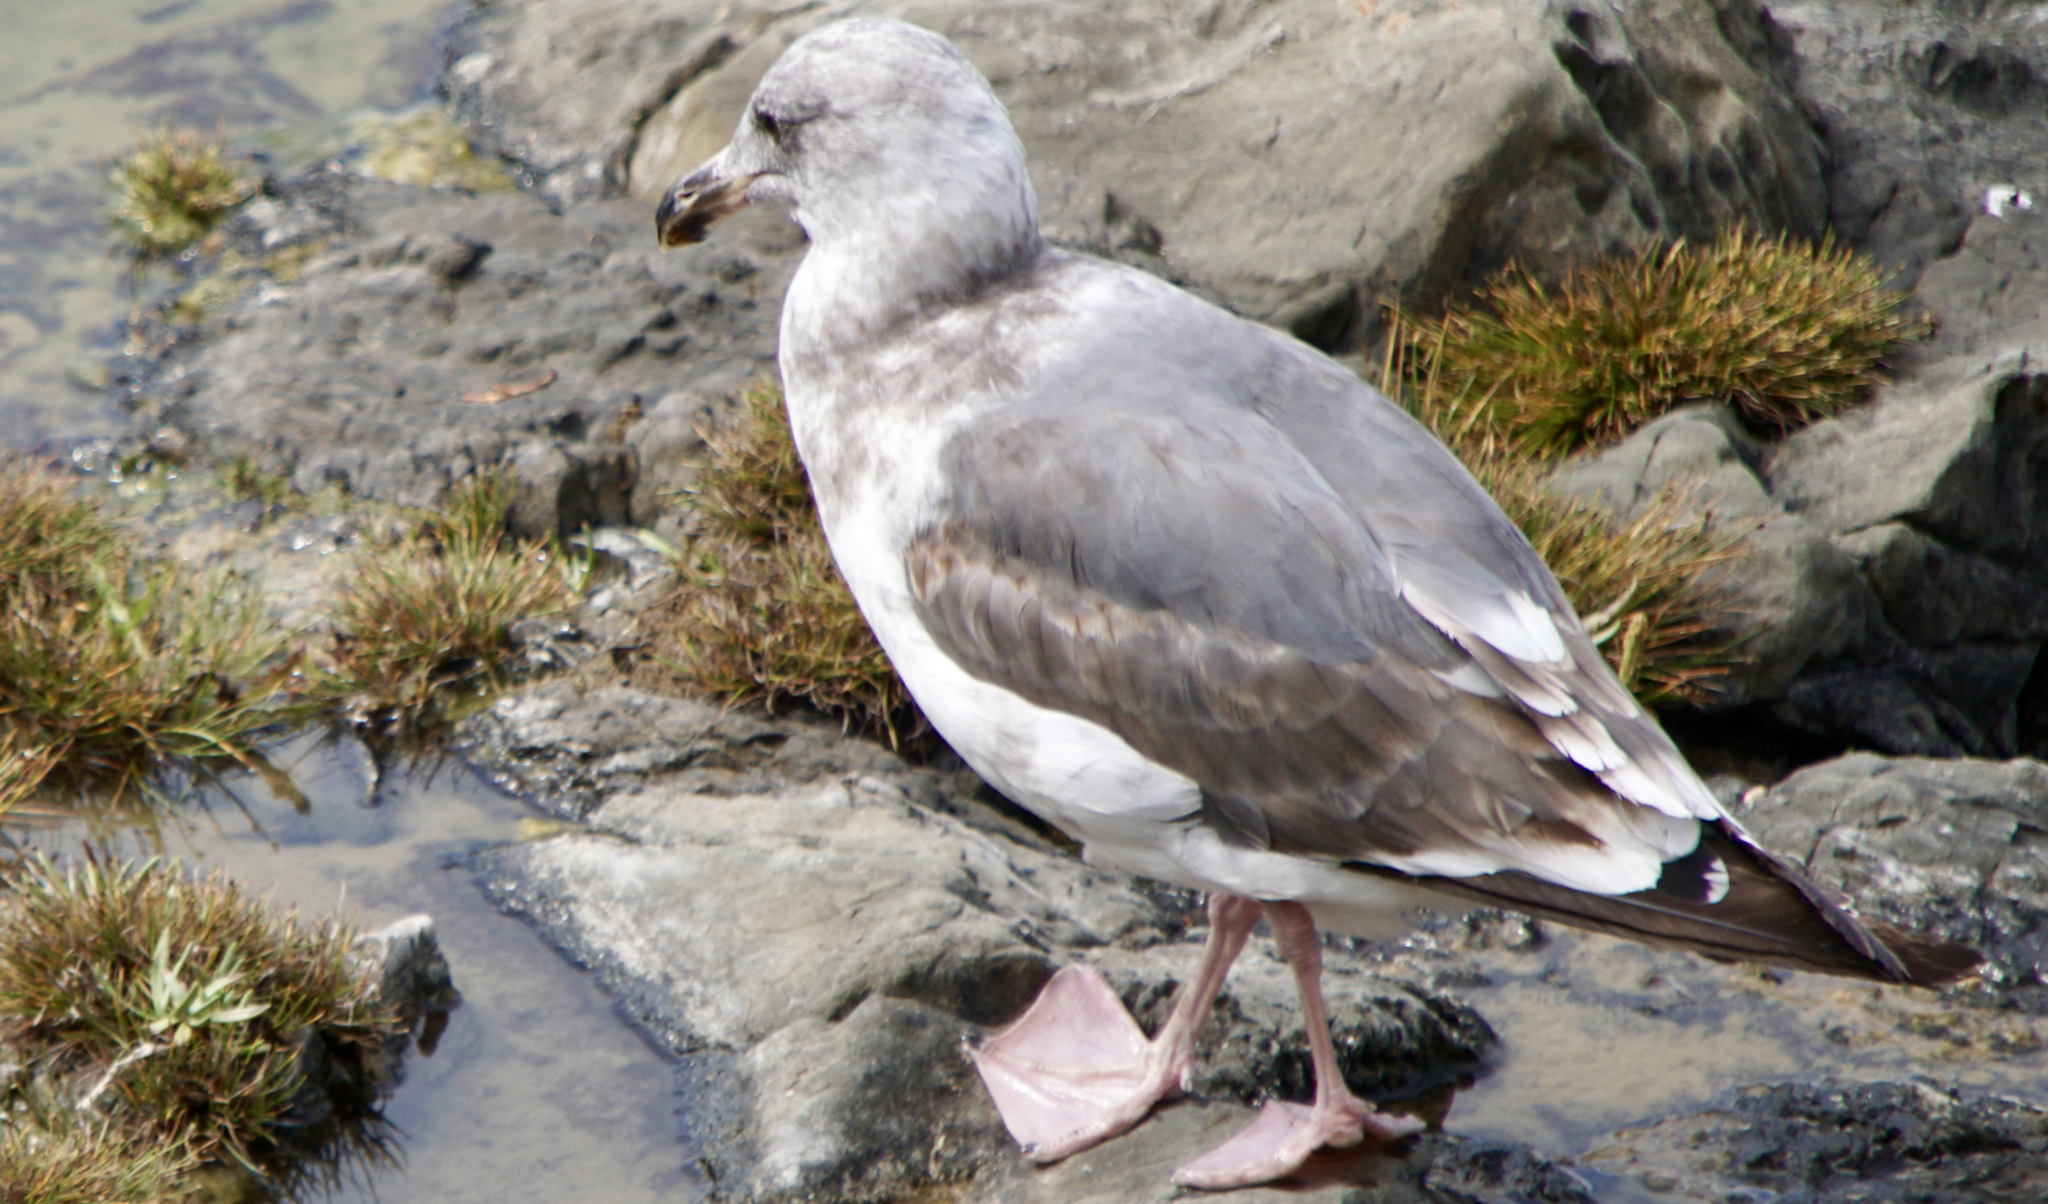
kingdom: Animalia
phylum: Chordata
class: Aves
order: Charadriiformes
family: Laridae
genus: Larus
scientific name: Larus occidentalis
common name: Western gull
